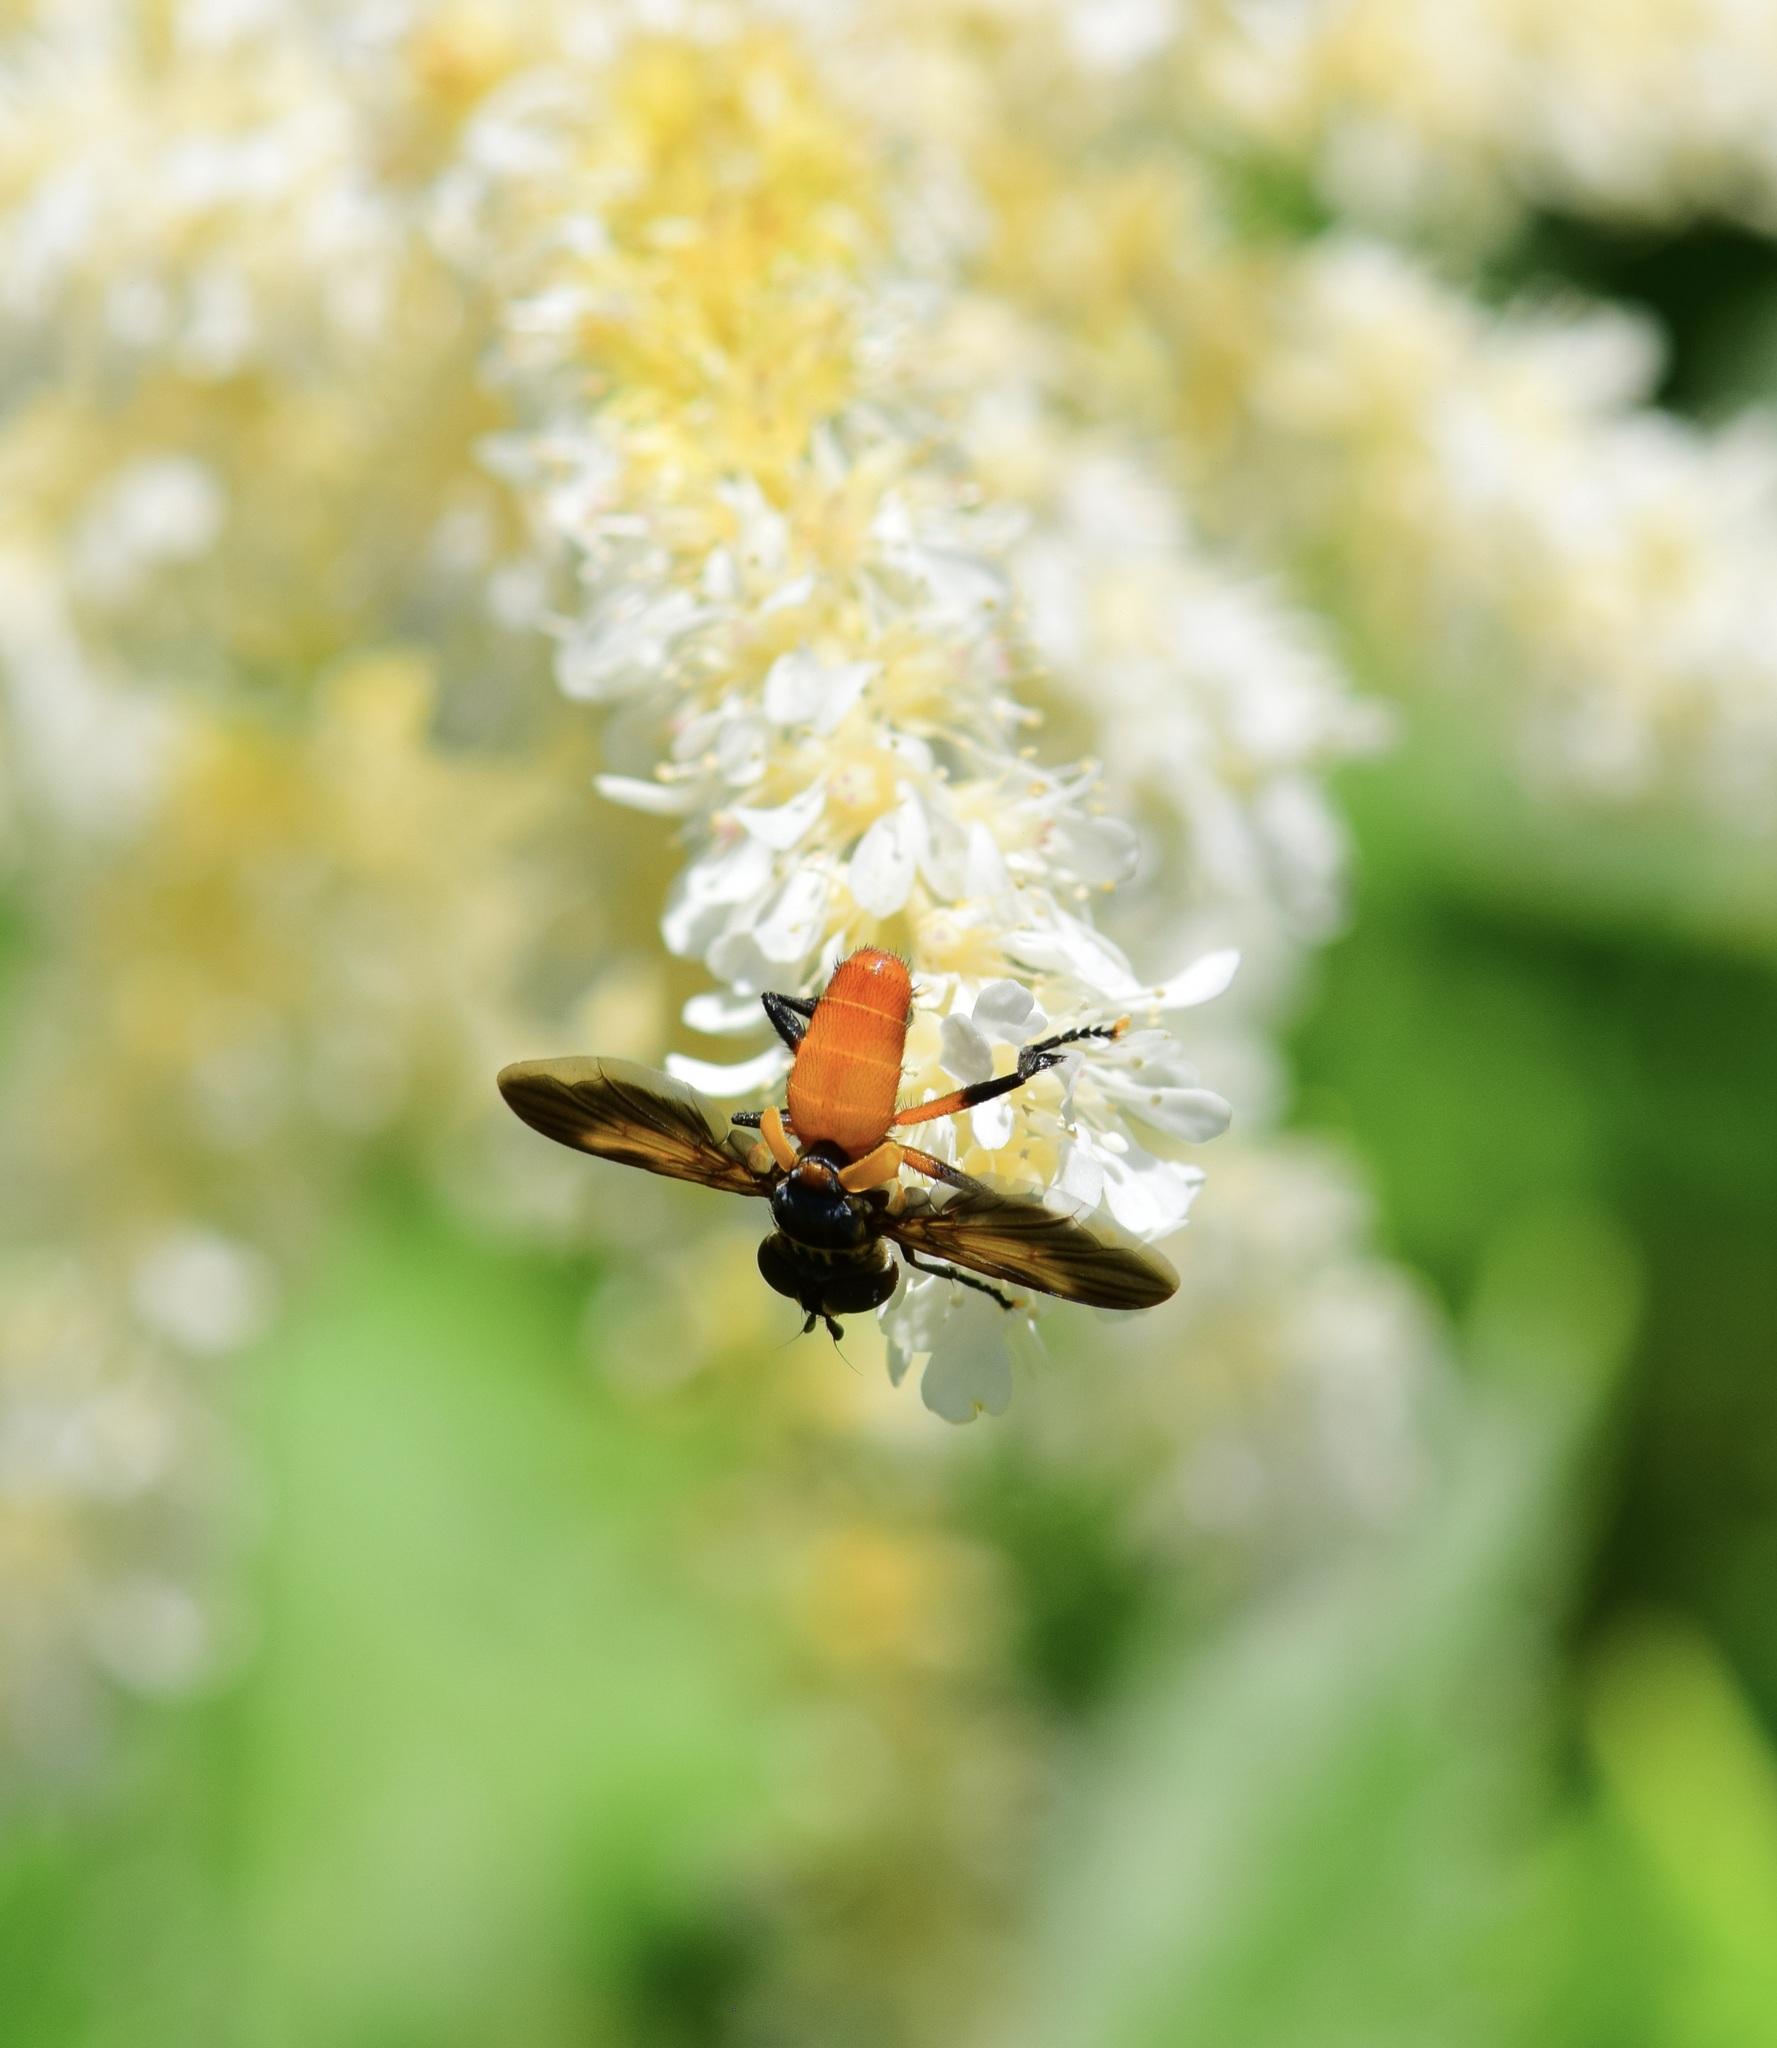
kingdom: Animalia
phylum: Arthropoda
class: Insecta
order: Diptera
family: Tachinidae
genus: Trichopoda
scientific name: Trichopoda pennipes
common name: Tachinid fly
